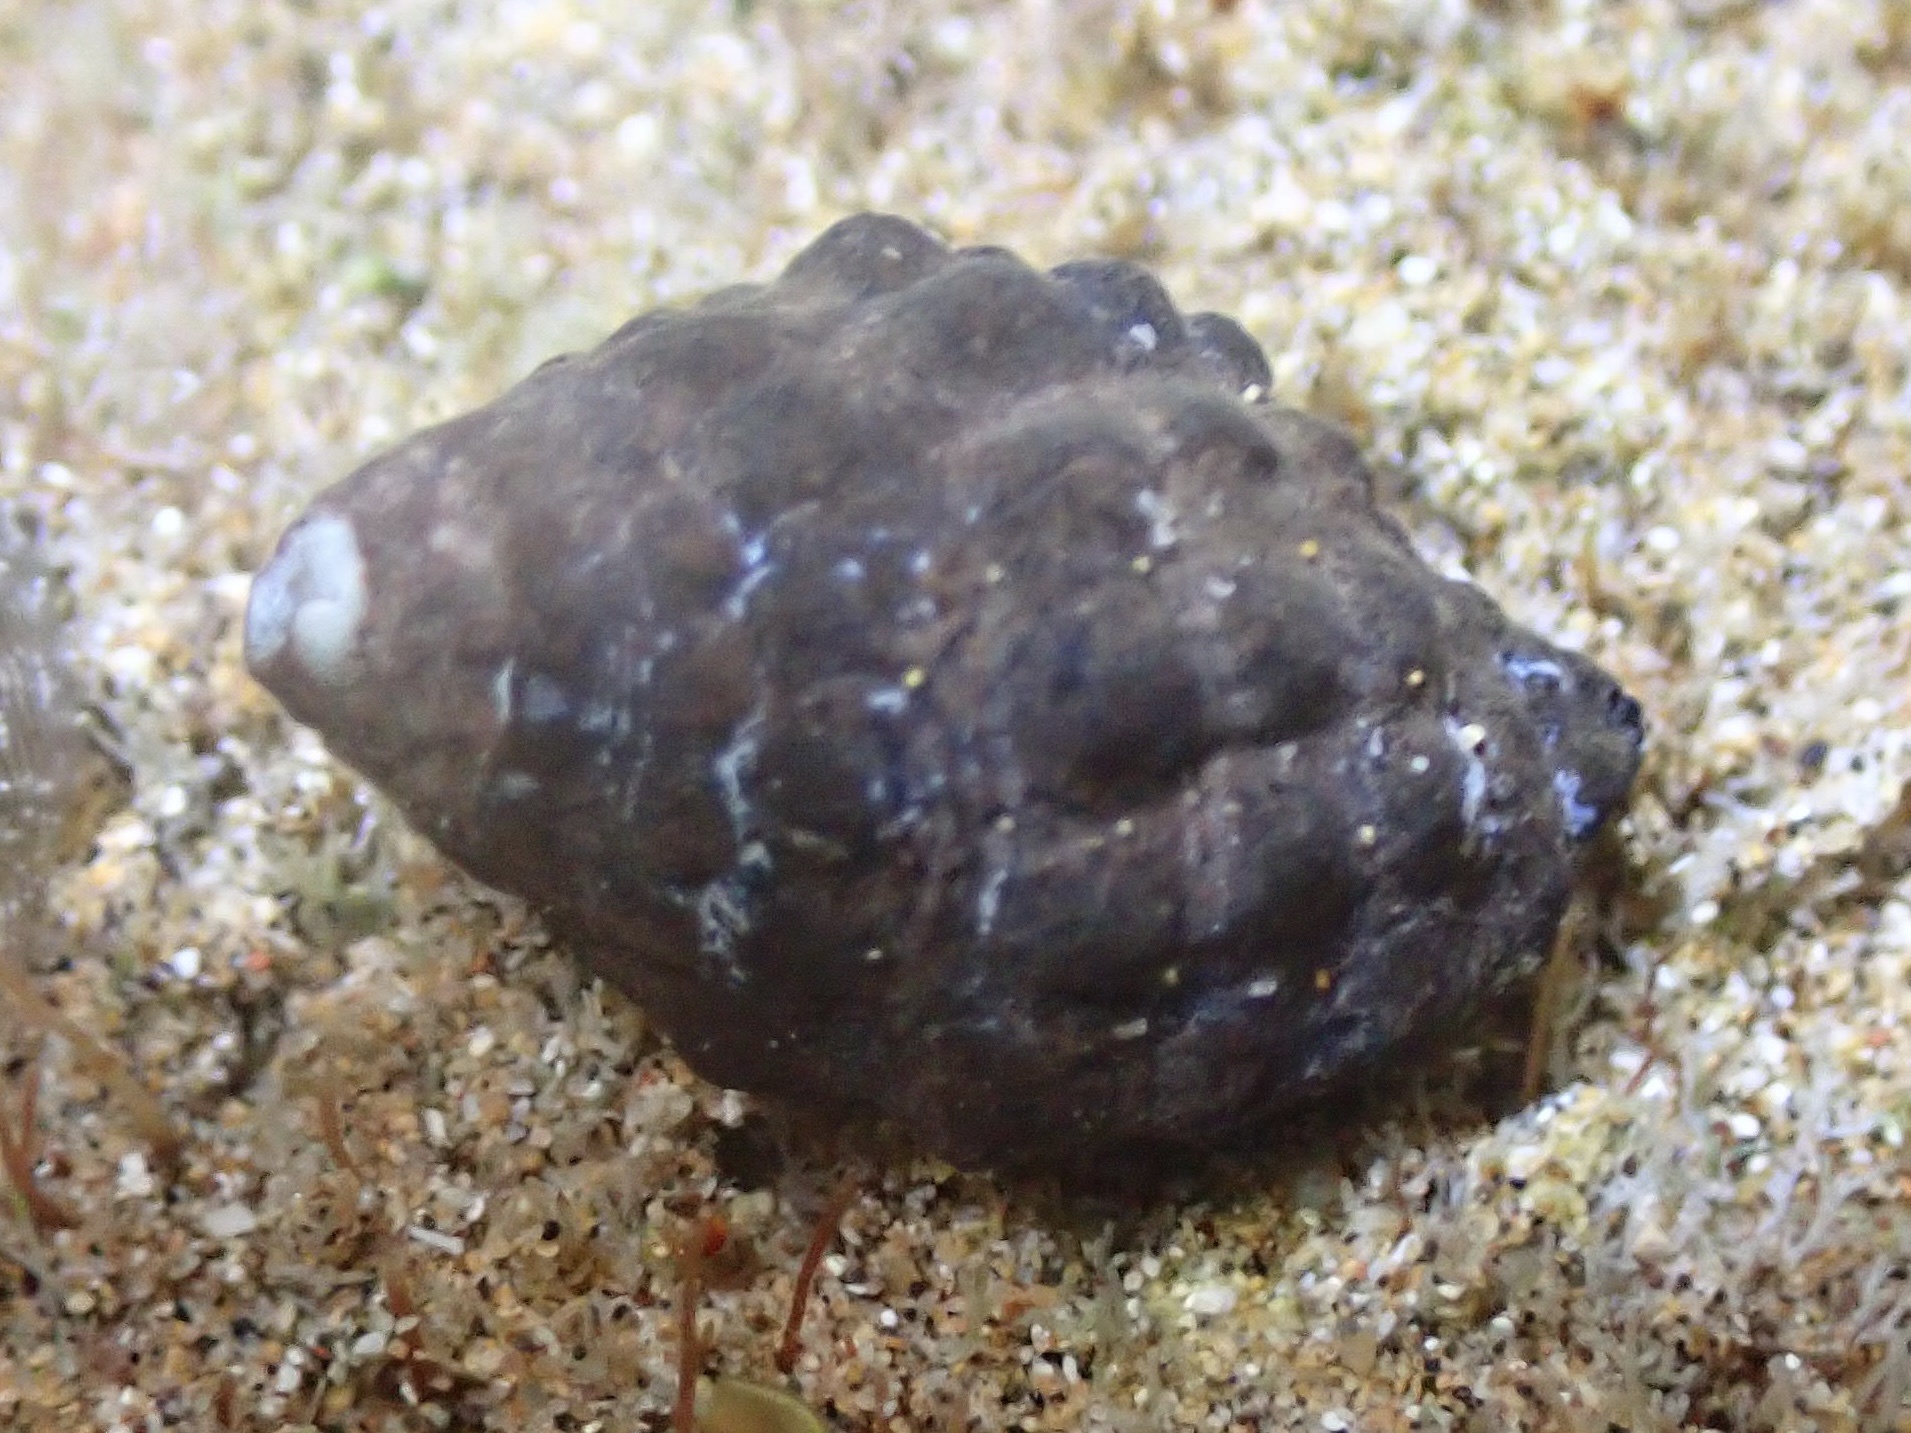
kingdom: Animalia
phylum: Mollusca
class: Gastropoda
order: Neogastropoda
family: Muricidae
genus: Tenguella
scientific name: Tenguella granulata
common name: Granular drupe
